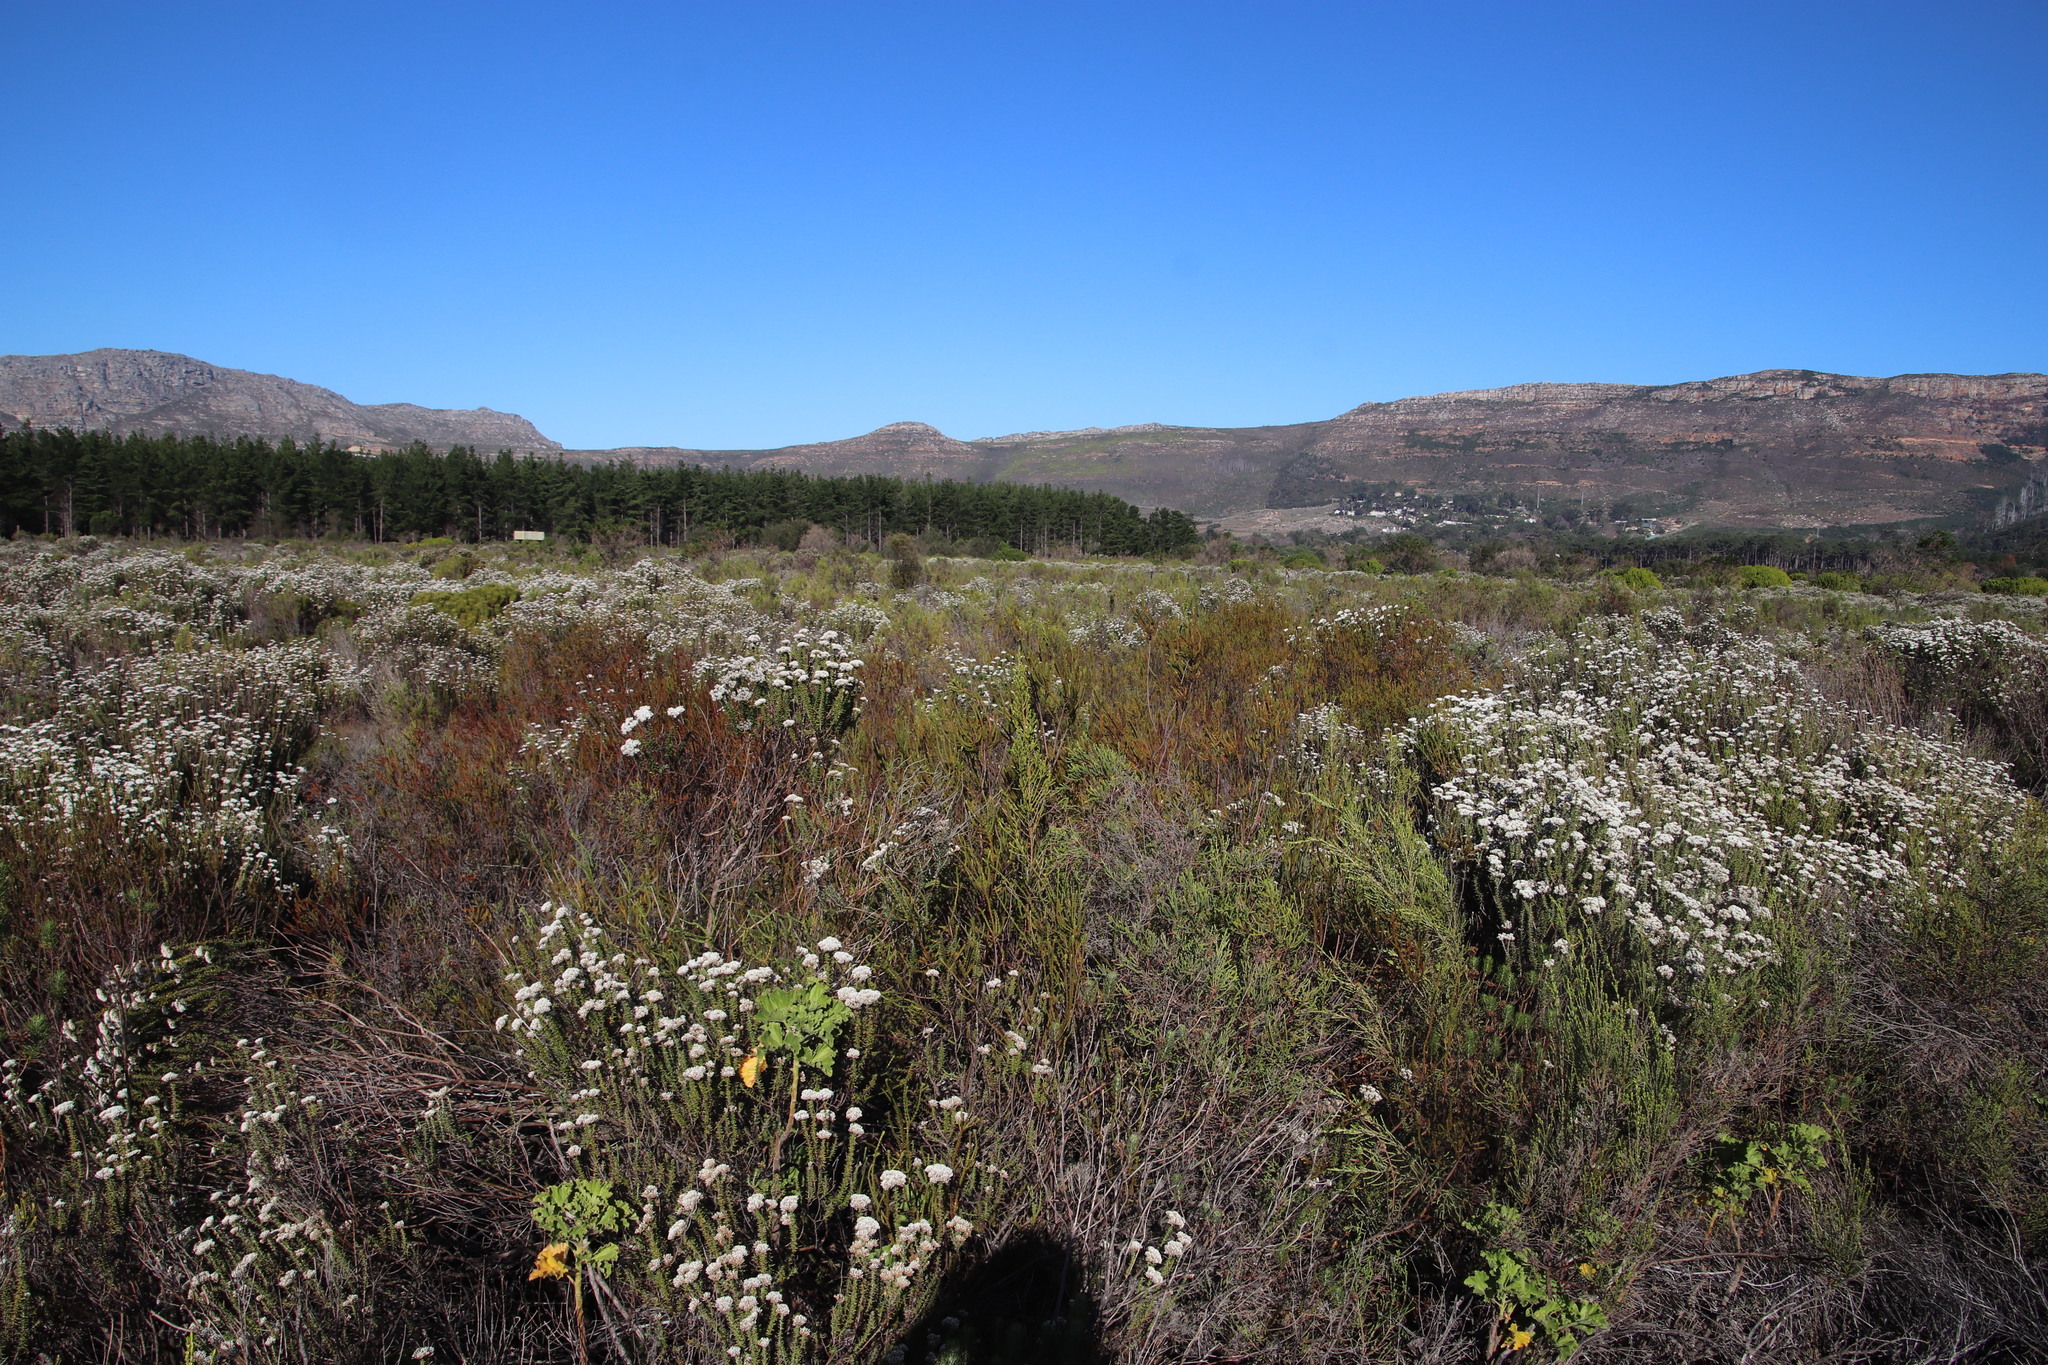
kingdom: Plantae
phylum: Tracheophyta
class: Magnoliopsida
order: Malvales
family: Thymelaeaceae
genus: Passerina
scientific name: Passerina corymbosa
